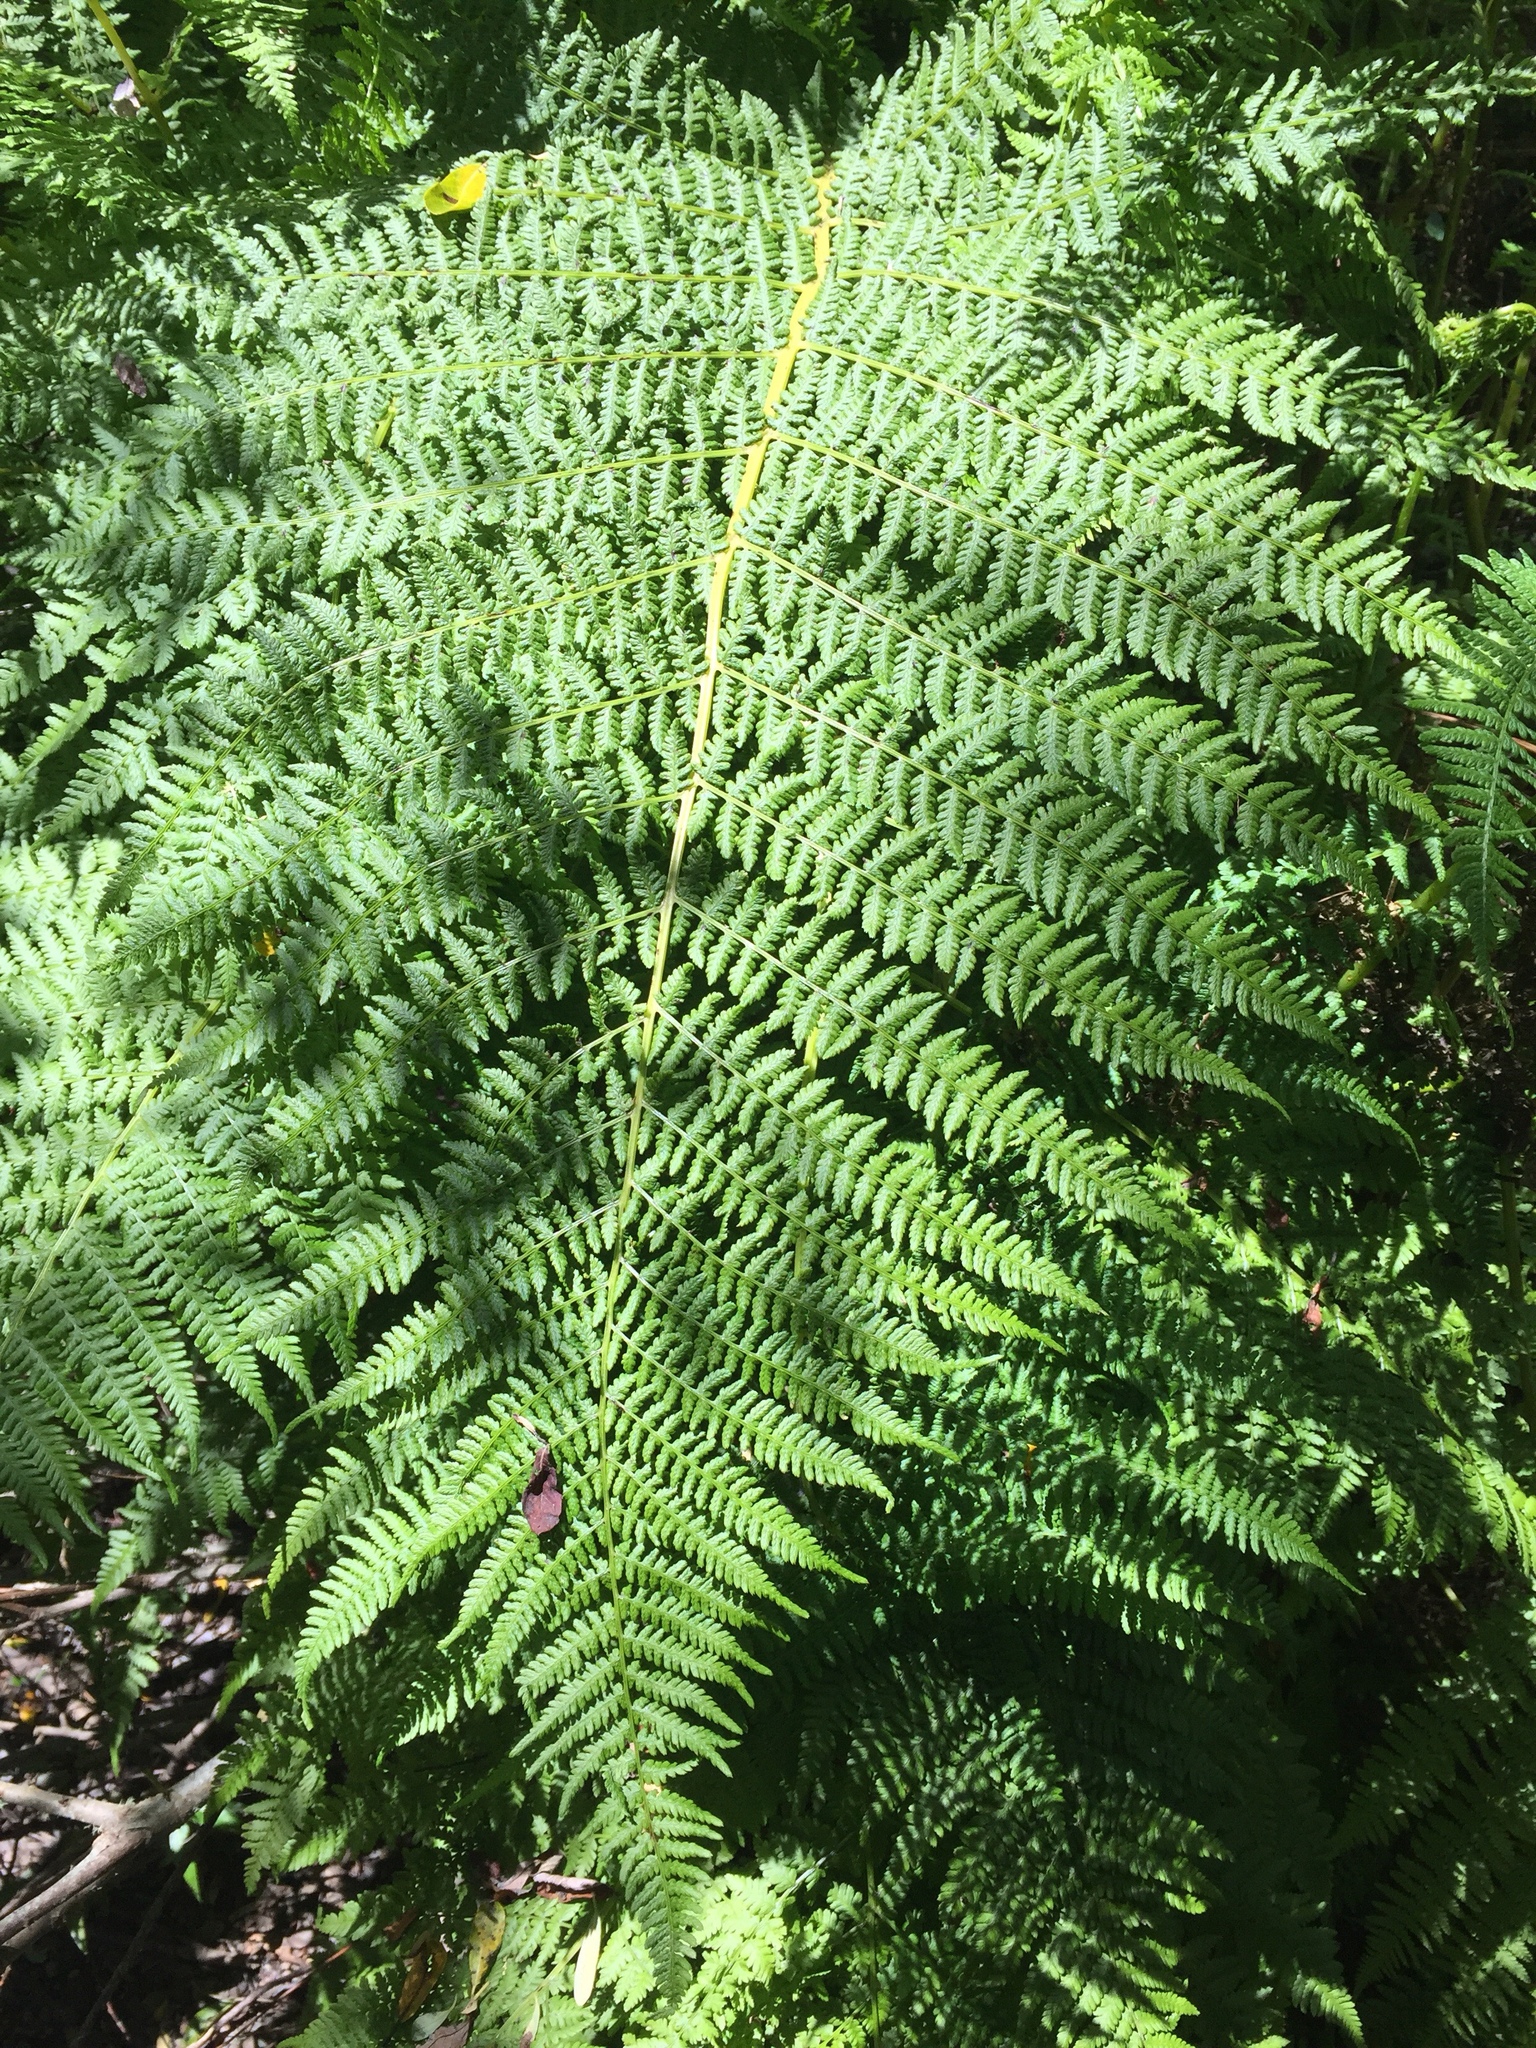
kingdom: Plantae
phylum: Tracheophyta
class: Polypodiopsida
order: Polypodiales
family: Athyriaceae
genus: Athyrium
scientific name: Athyrium filix-femina
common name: Lady fern
